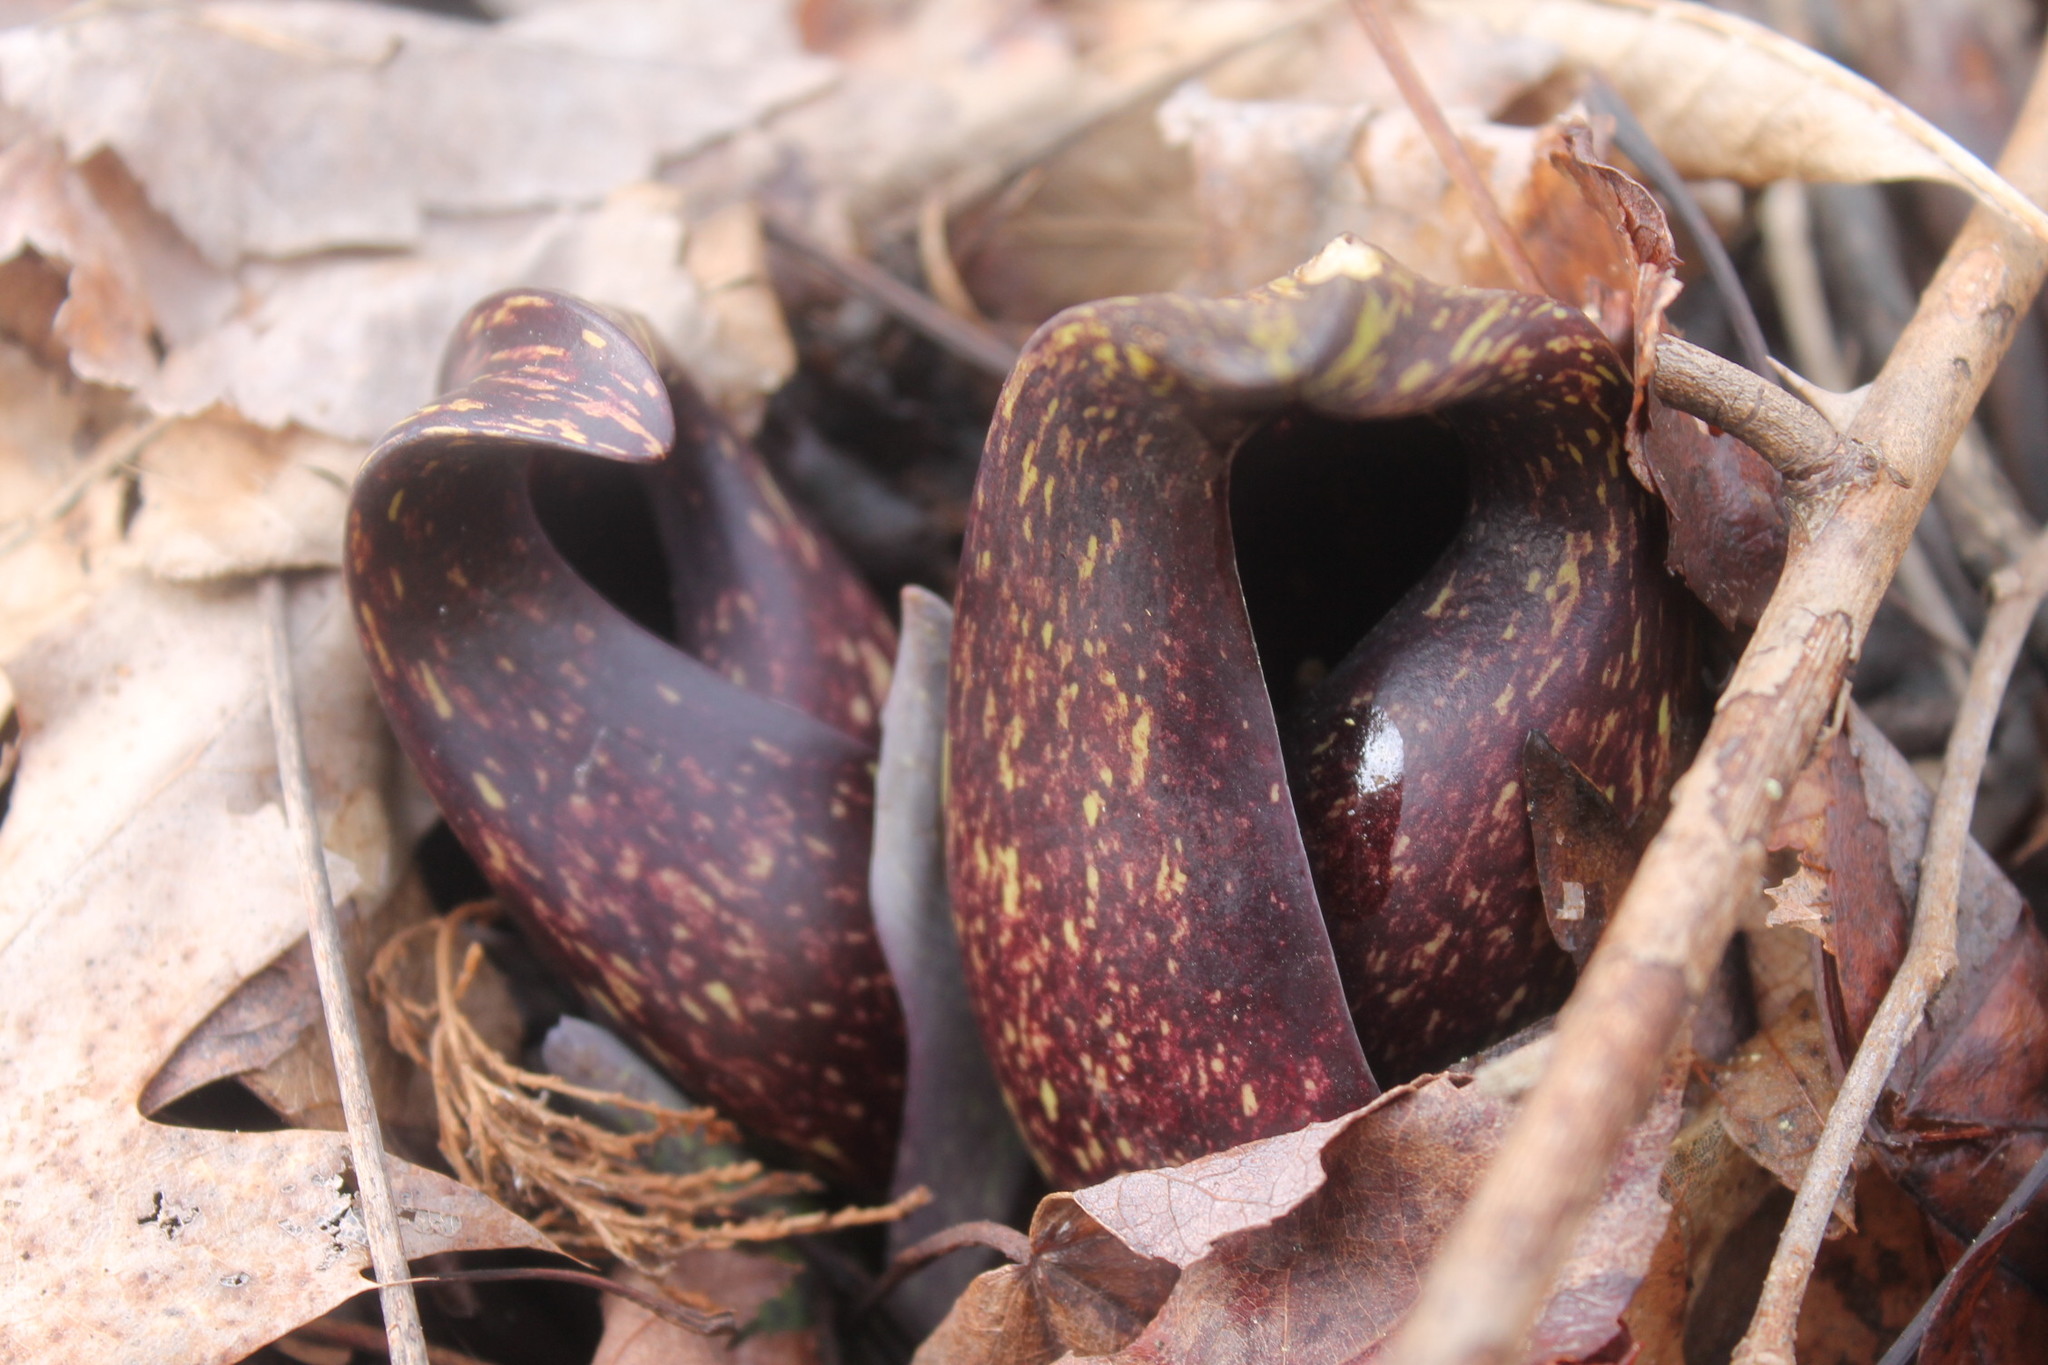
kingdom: Plantae
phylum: Tracheophyta
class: Liliopsida
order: Alismatales
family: Araceae
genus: Symplocarpus
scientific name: Symplocarpus foetidus
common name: Eastern skunk cabbage
